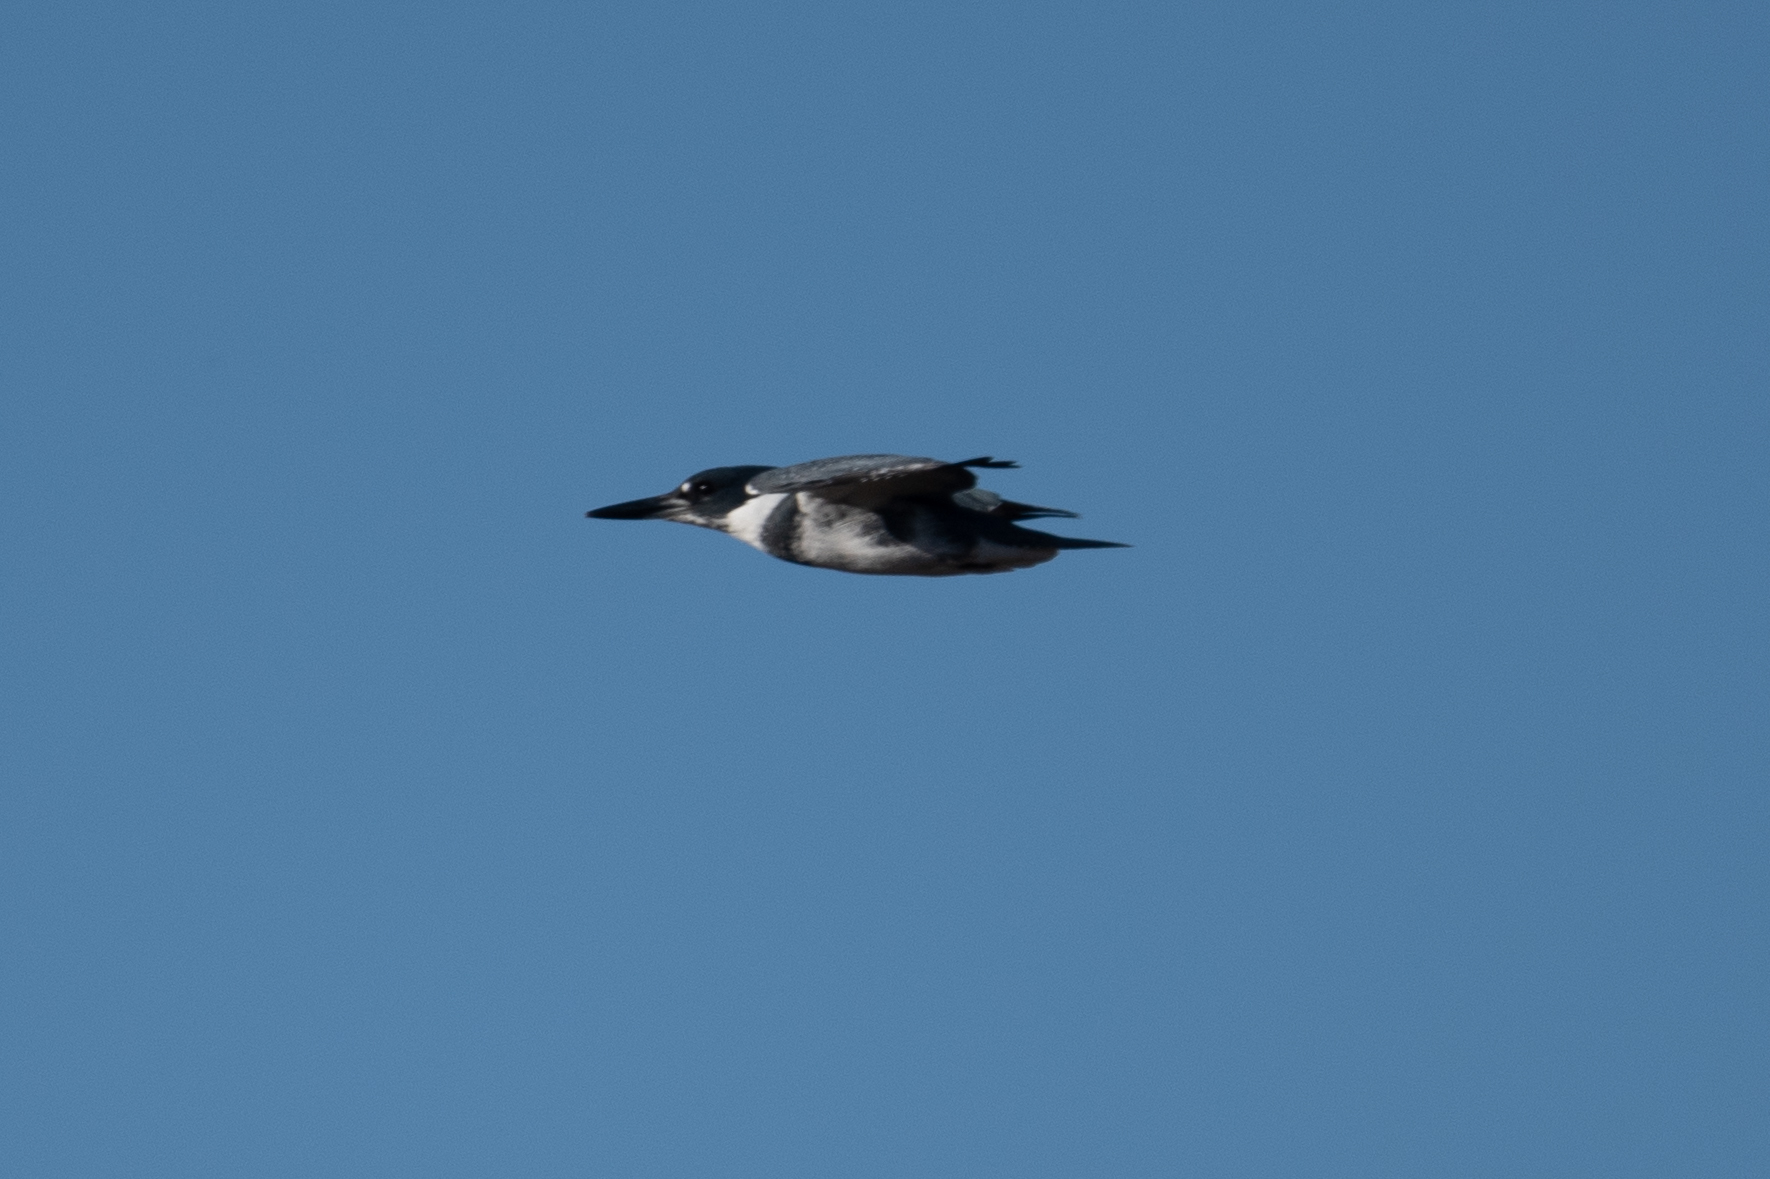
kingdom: Animalia
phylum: Chordata
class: Aves
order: Coraciiformes
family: Alcedinidae
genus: Megaceryle
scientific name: Megaceryle alcyon
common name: Belted kingfisher
